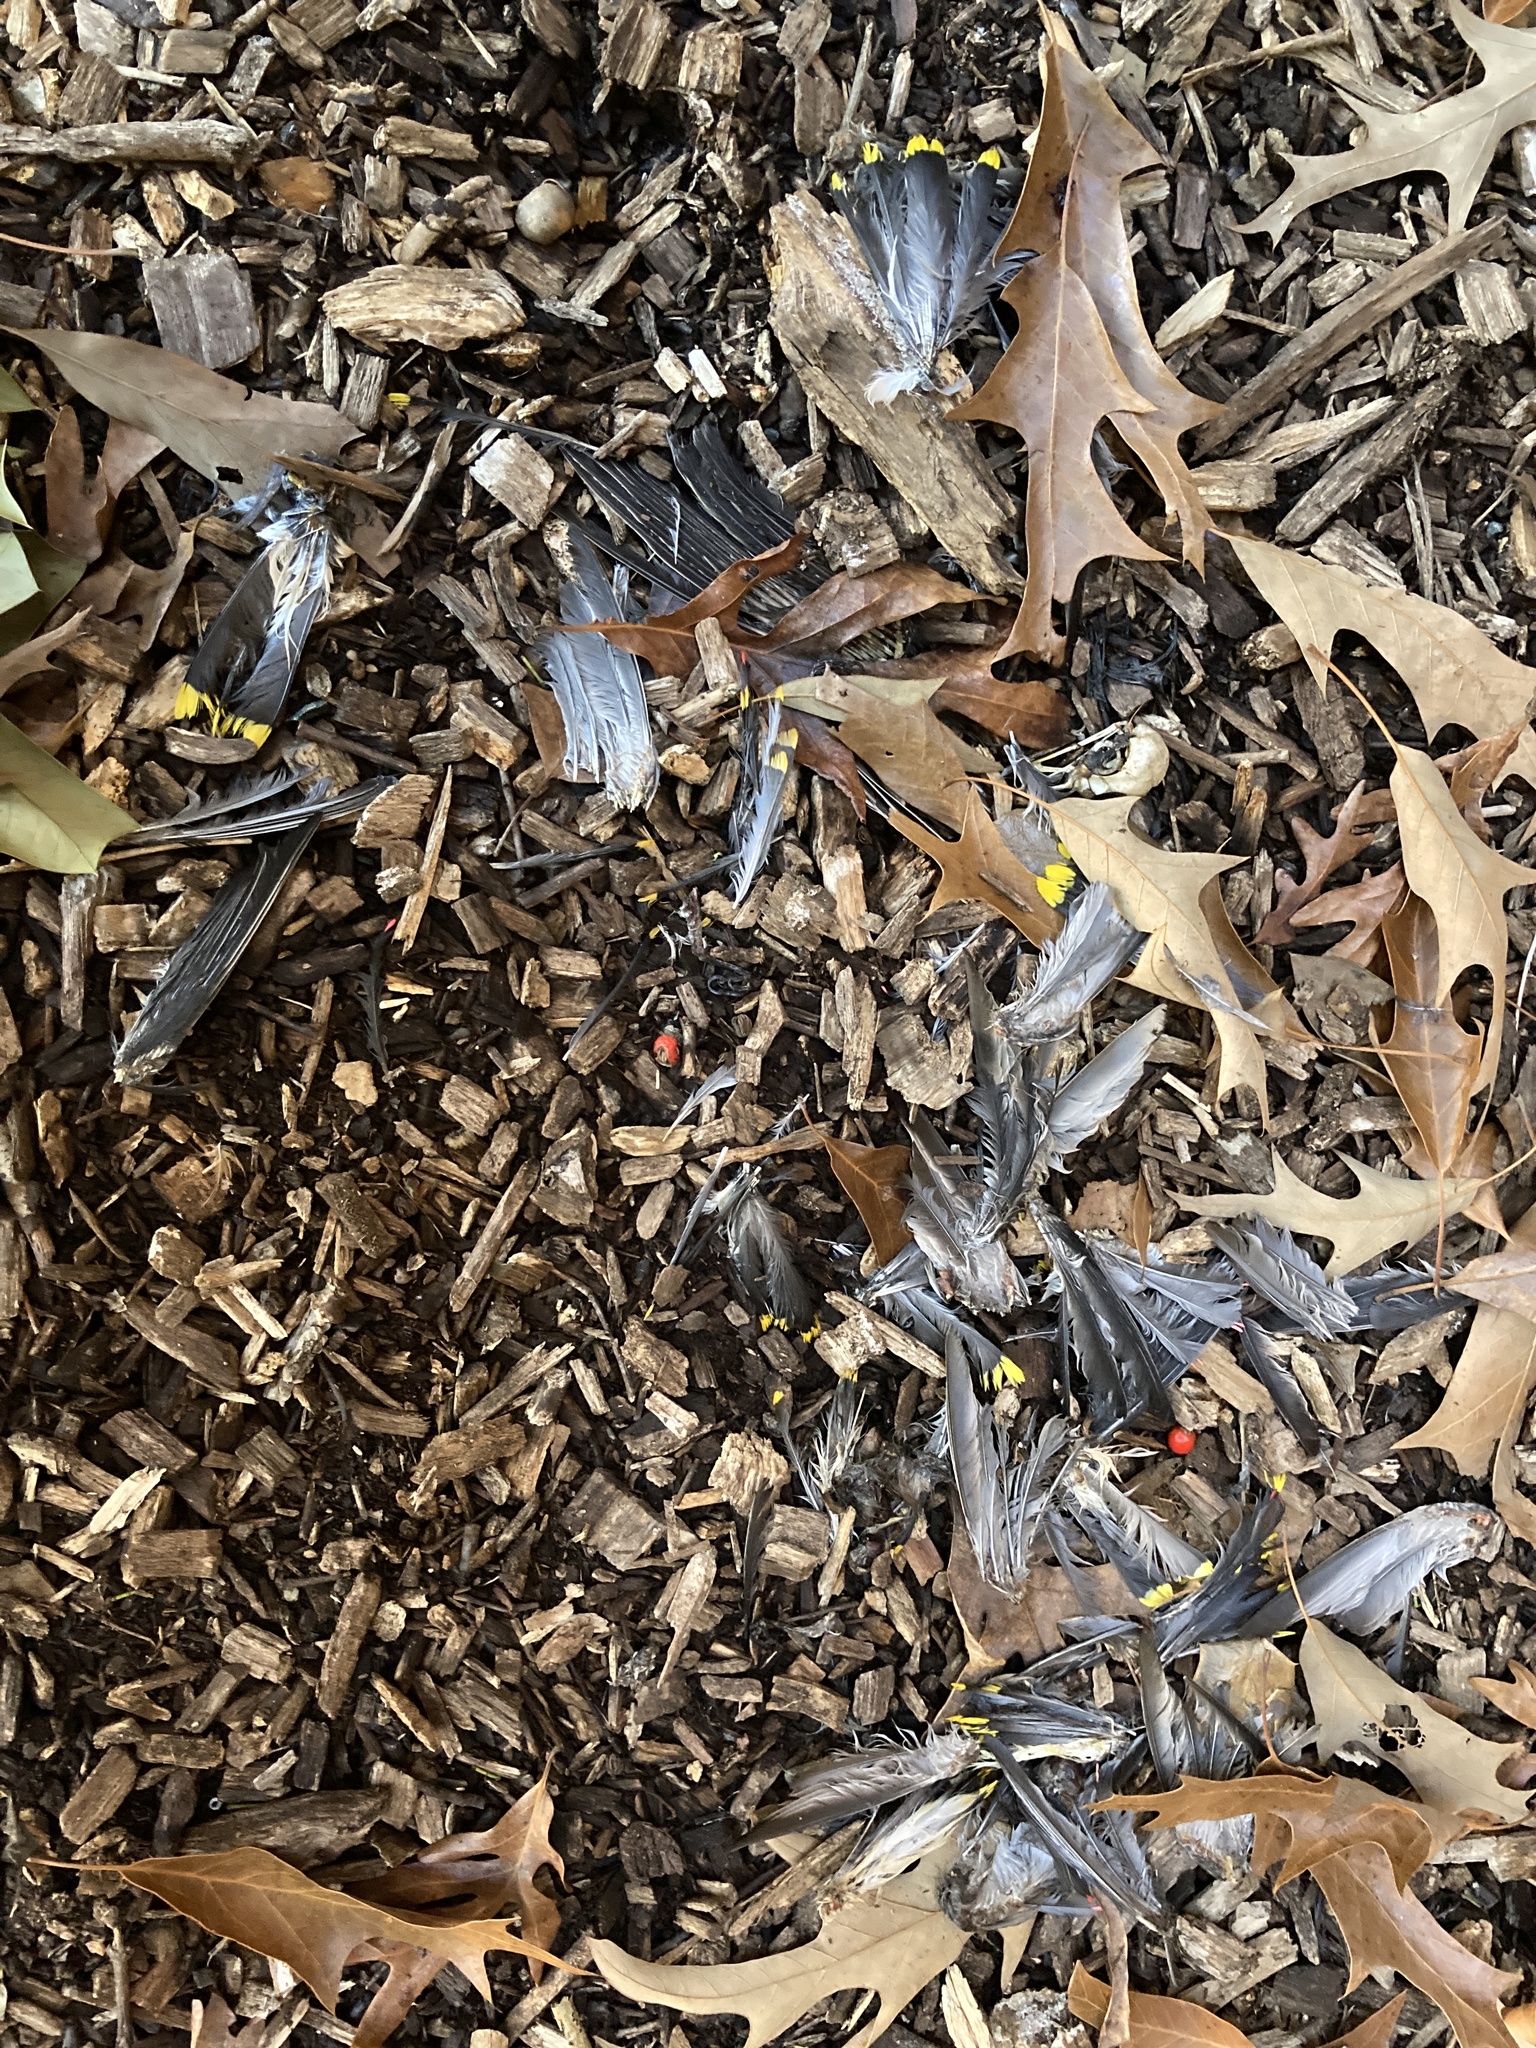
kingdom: Animalia
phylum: Chordata
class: Aves
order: Passeriformes
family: Bombycillidae
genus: Bombycilla
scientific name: Bombycilla cedrorum
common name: Cedar waxwing
